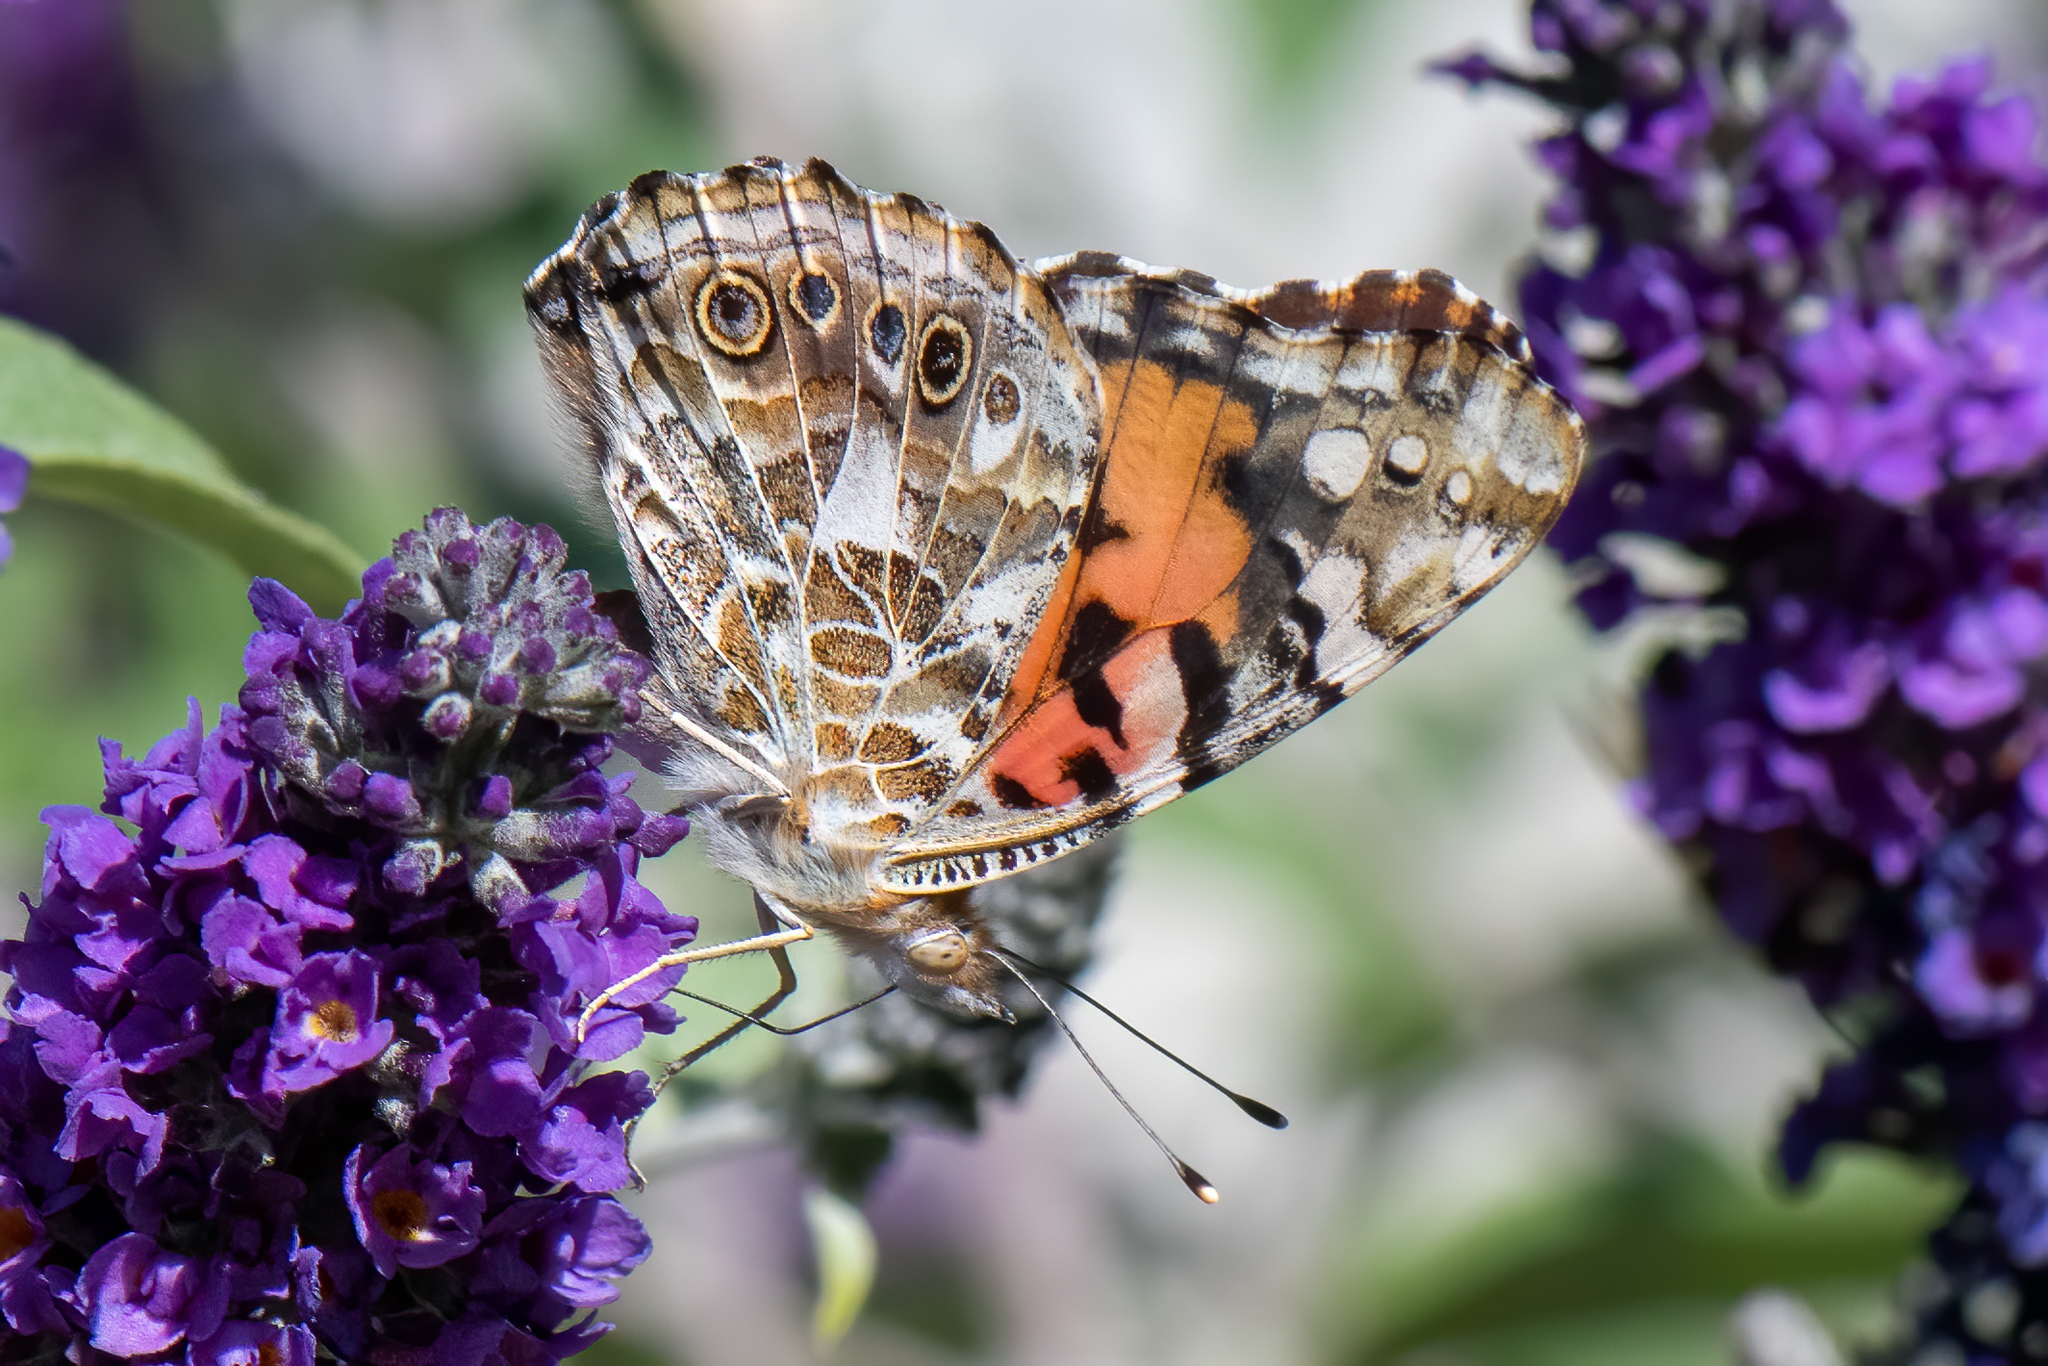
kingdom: Animalia
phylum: Arthropoda
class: Insecta
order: Lepidoptera
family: Nymphalidae
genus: Vanessa
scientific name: Vanessa cardui
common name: Painted lady
